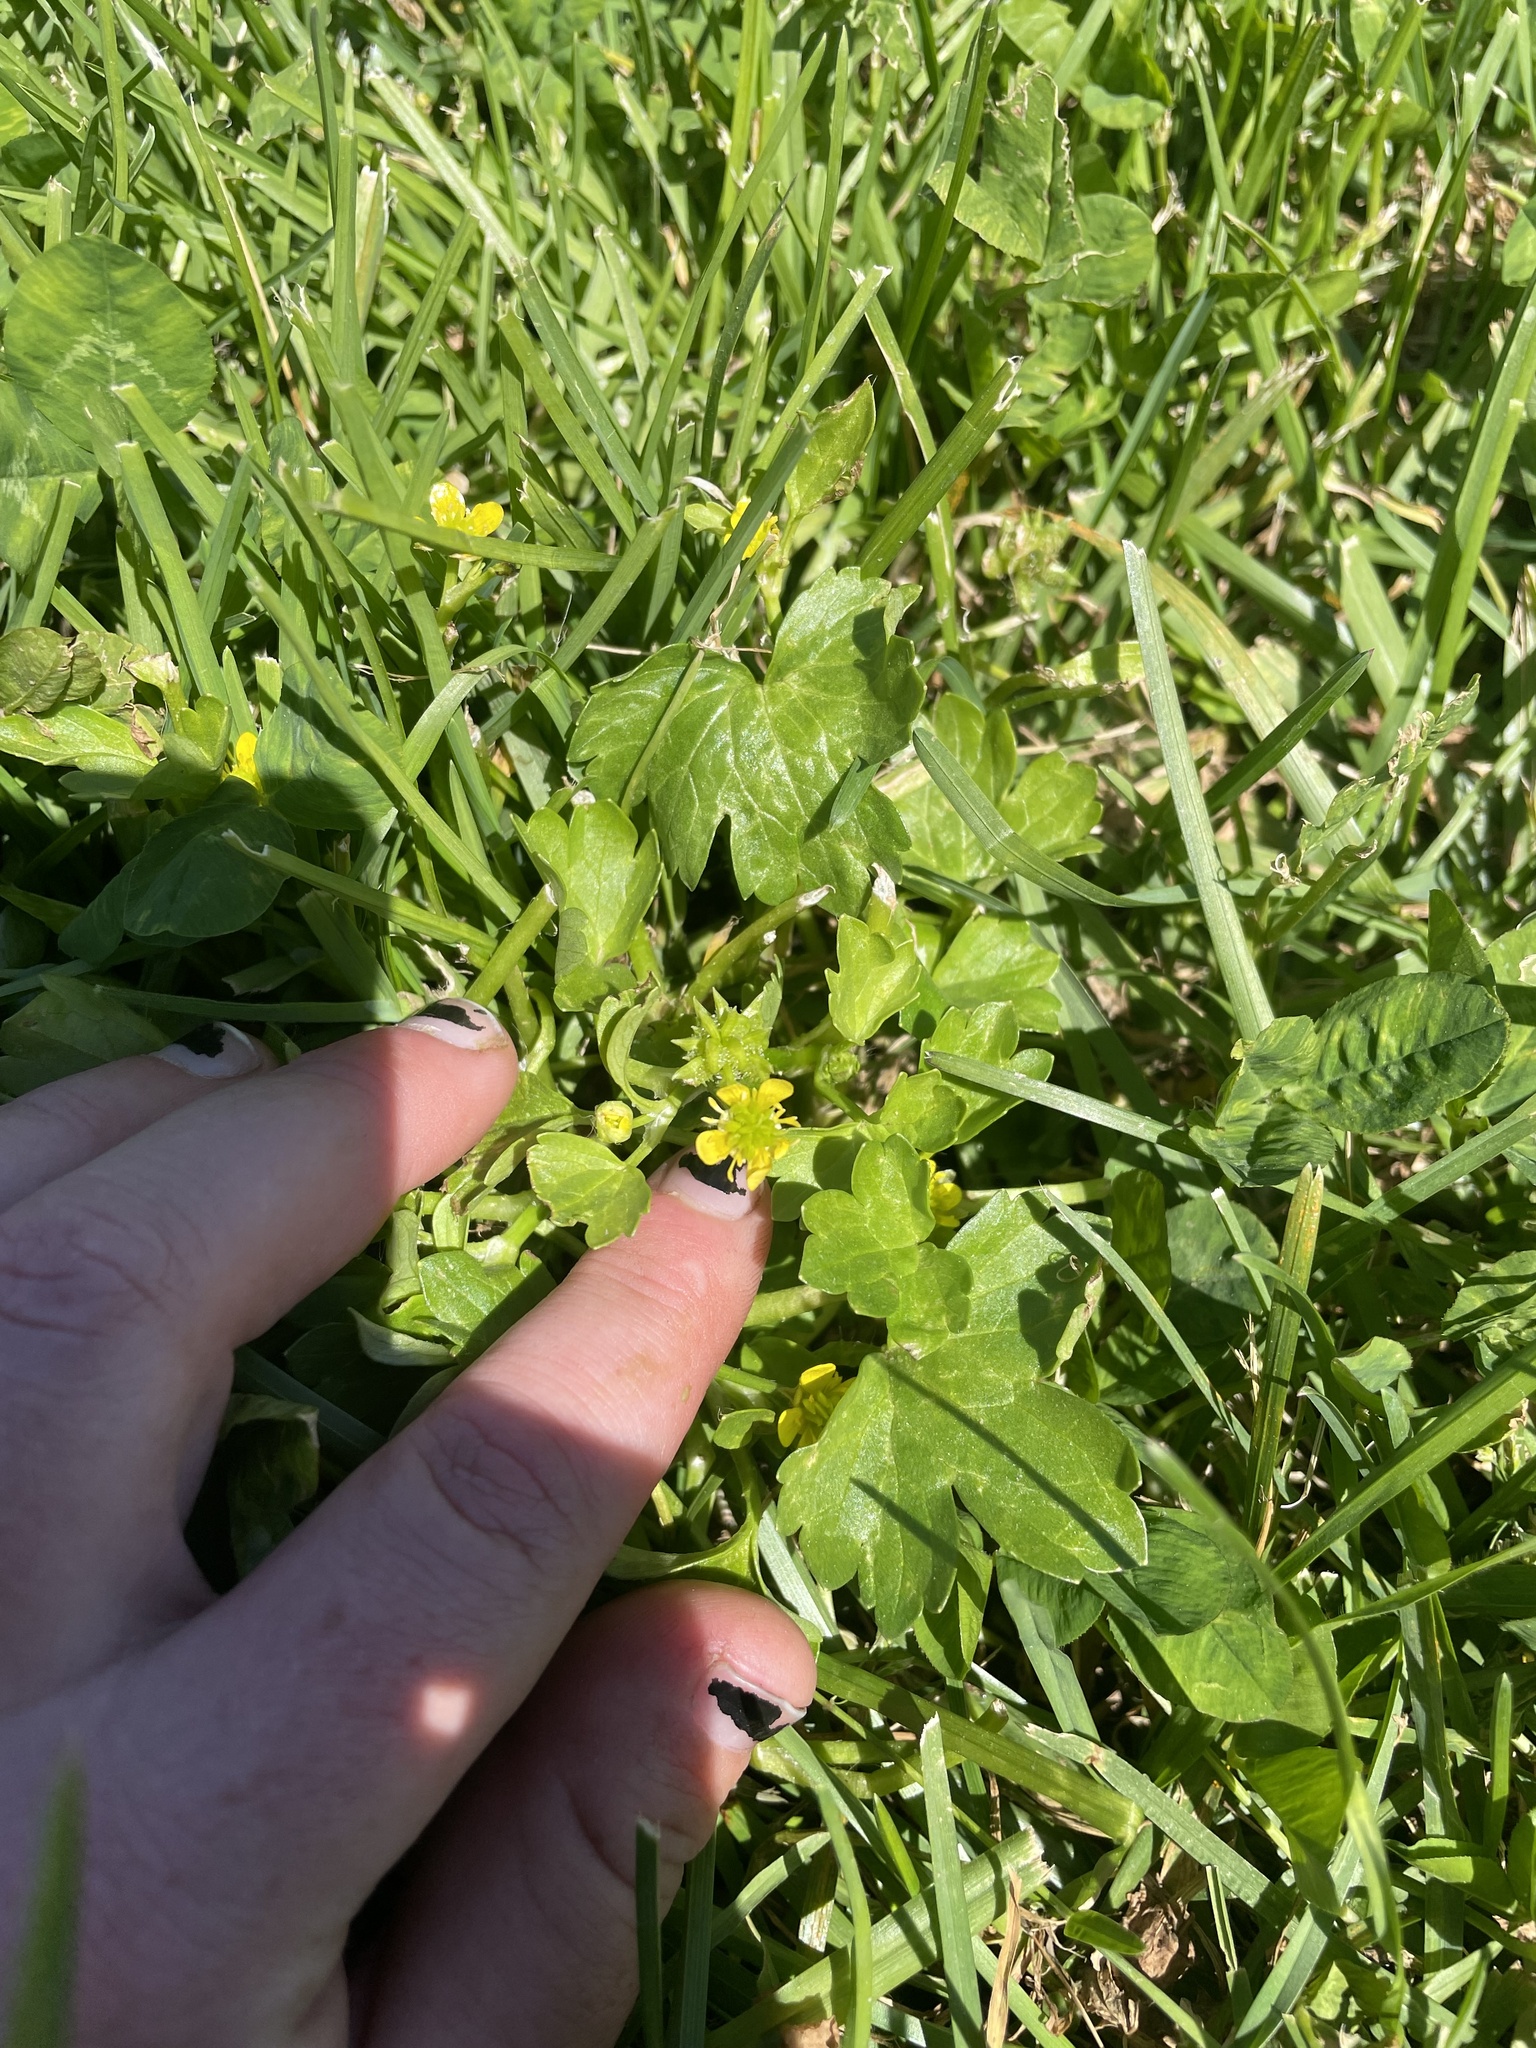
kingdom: Plantae
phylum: Tracheophyta
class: Magnoliopsida
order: Ranunculales
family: Ranunculaceae
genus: Ranunculus
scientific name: Ranunculus muricatus
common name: Rough-fruited buttercup
